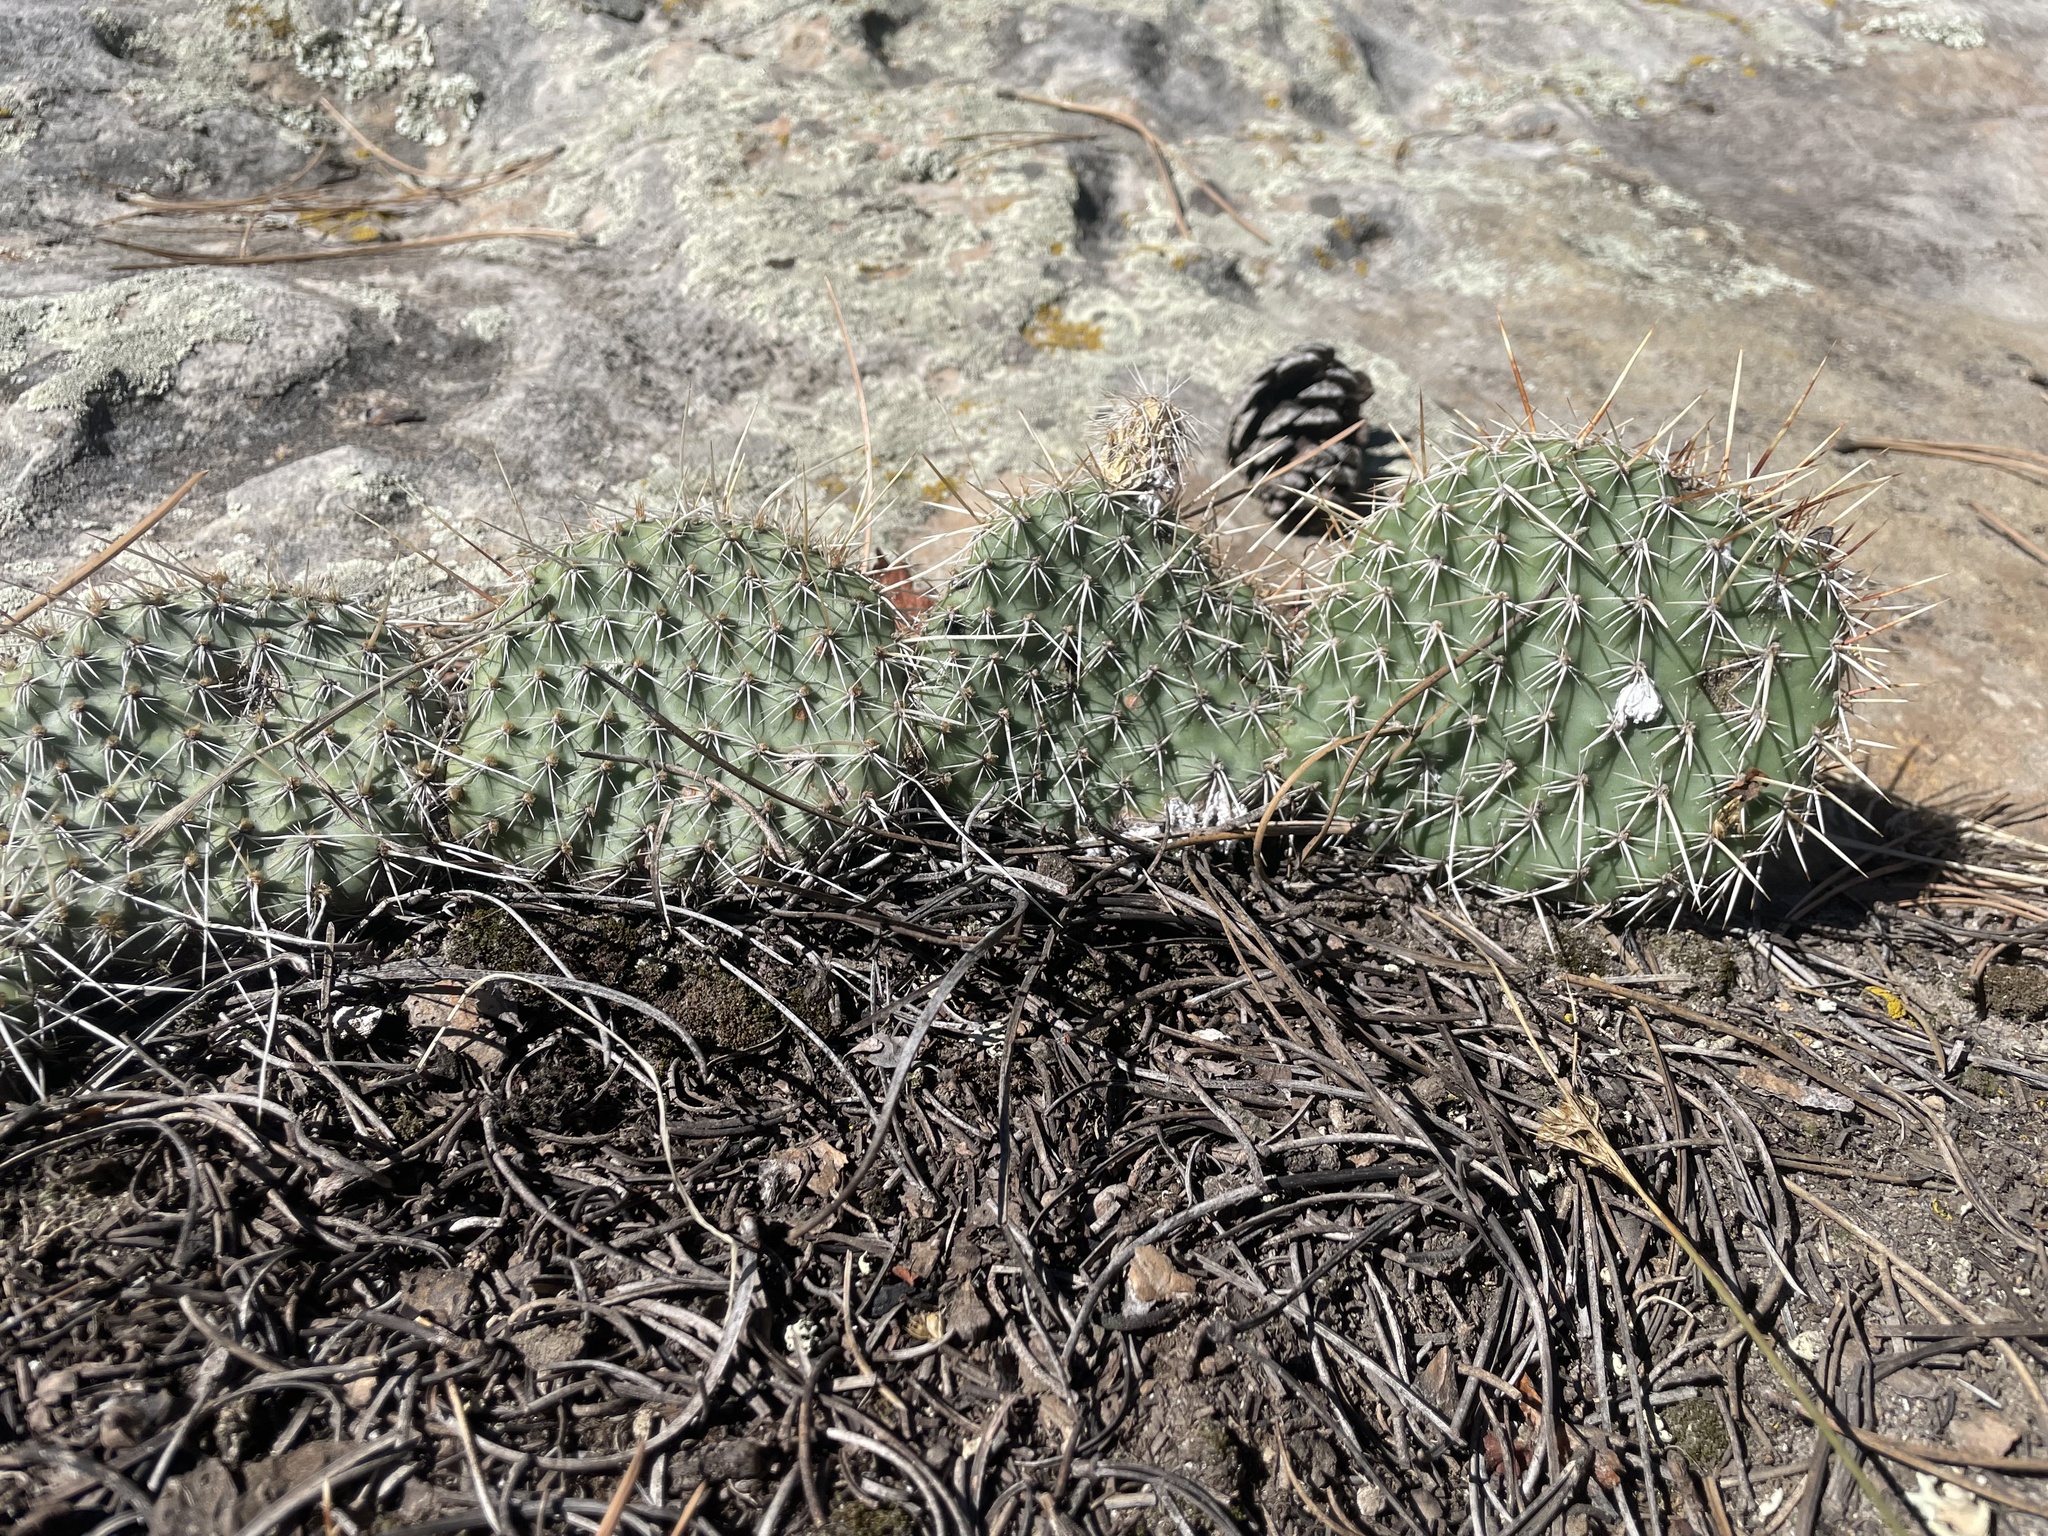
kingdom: Plantae
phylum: Tracheophyta
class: Magnoliopsida
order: Caryophyllales
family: Cactaceae
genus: Opuntia
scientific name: Opuntia polyacantha
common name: Plains prickly-pear
